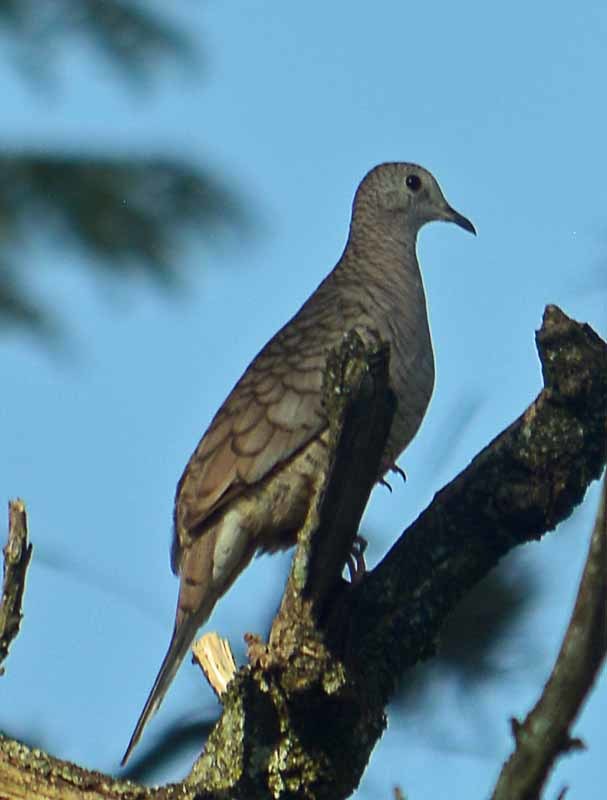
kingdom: Animalia
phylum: Chordata
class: Aves
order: Columbiformes
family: Columbidae
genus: Columbina
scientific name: Columbina inca
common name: Inca dove
